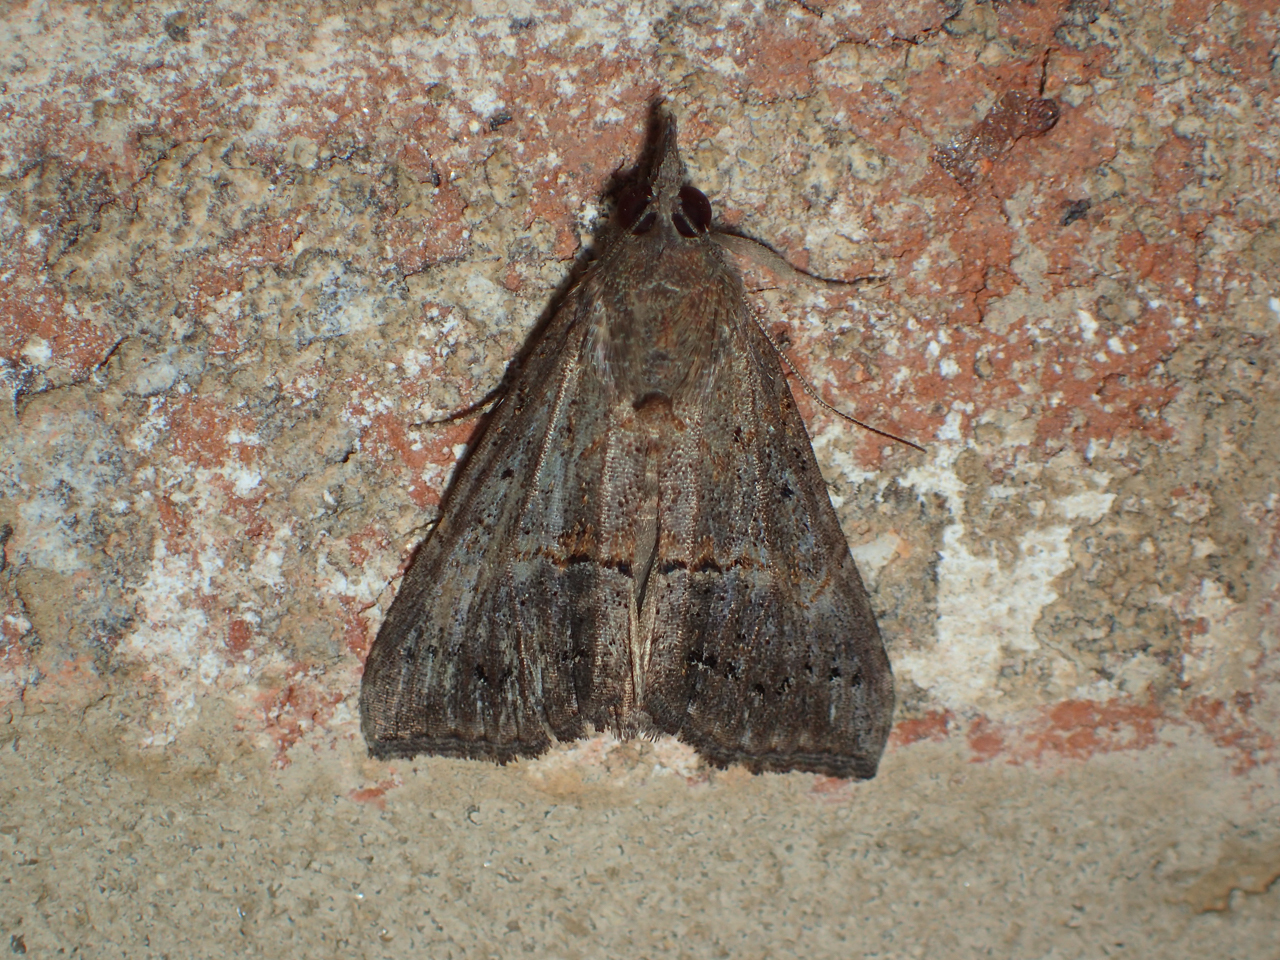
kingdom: Animalia
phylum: Arthropoda
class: Insecta
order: Lepidoptera
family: Erebidae
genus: Hypena
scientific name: Hypena scabra
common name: Green cloverworm
